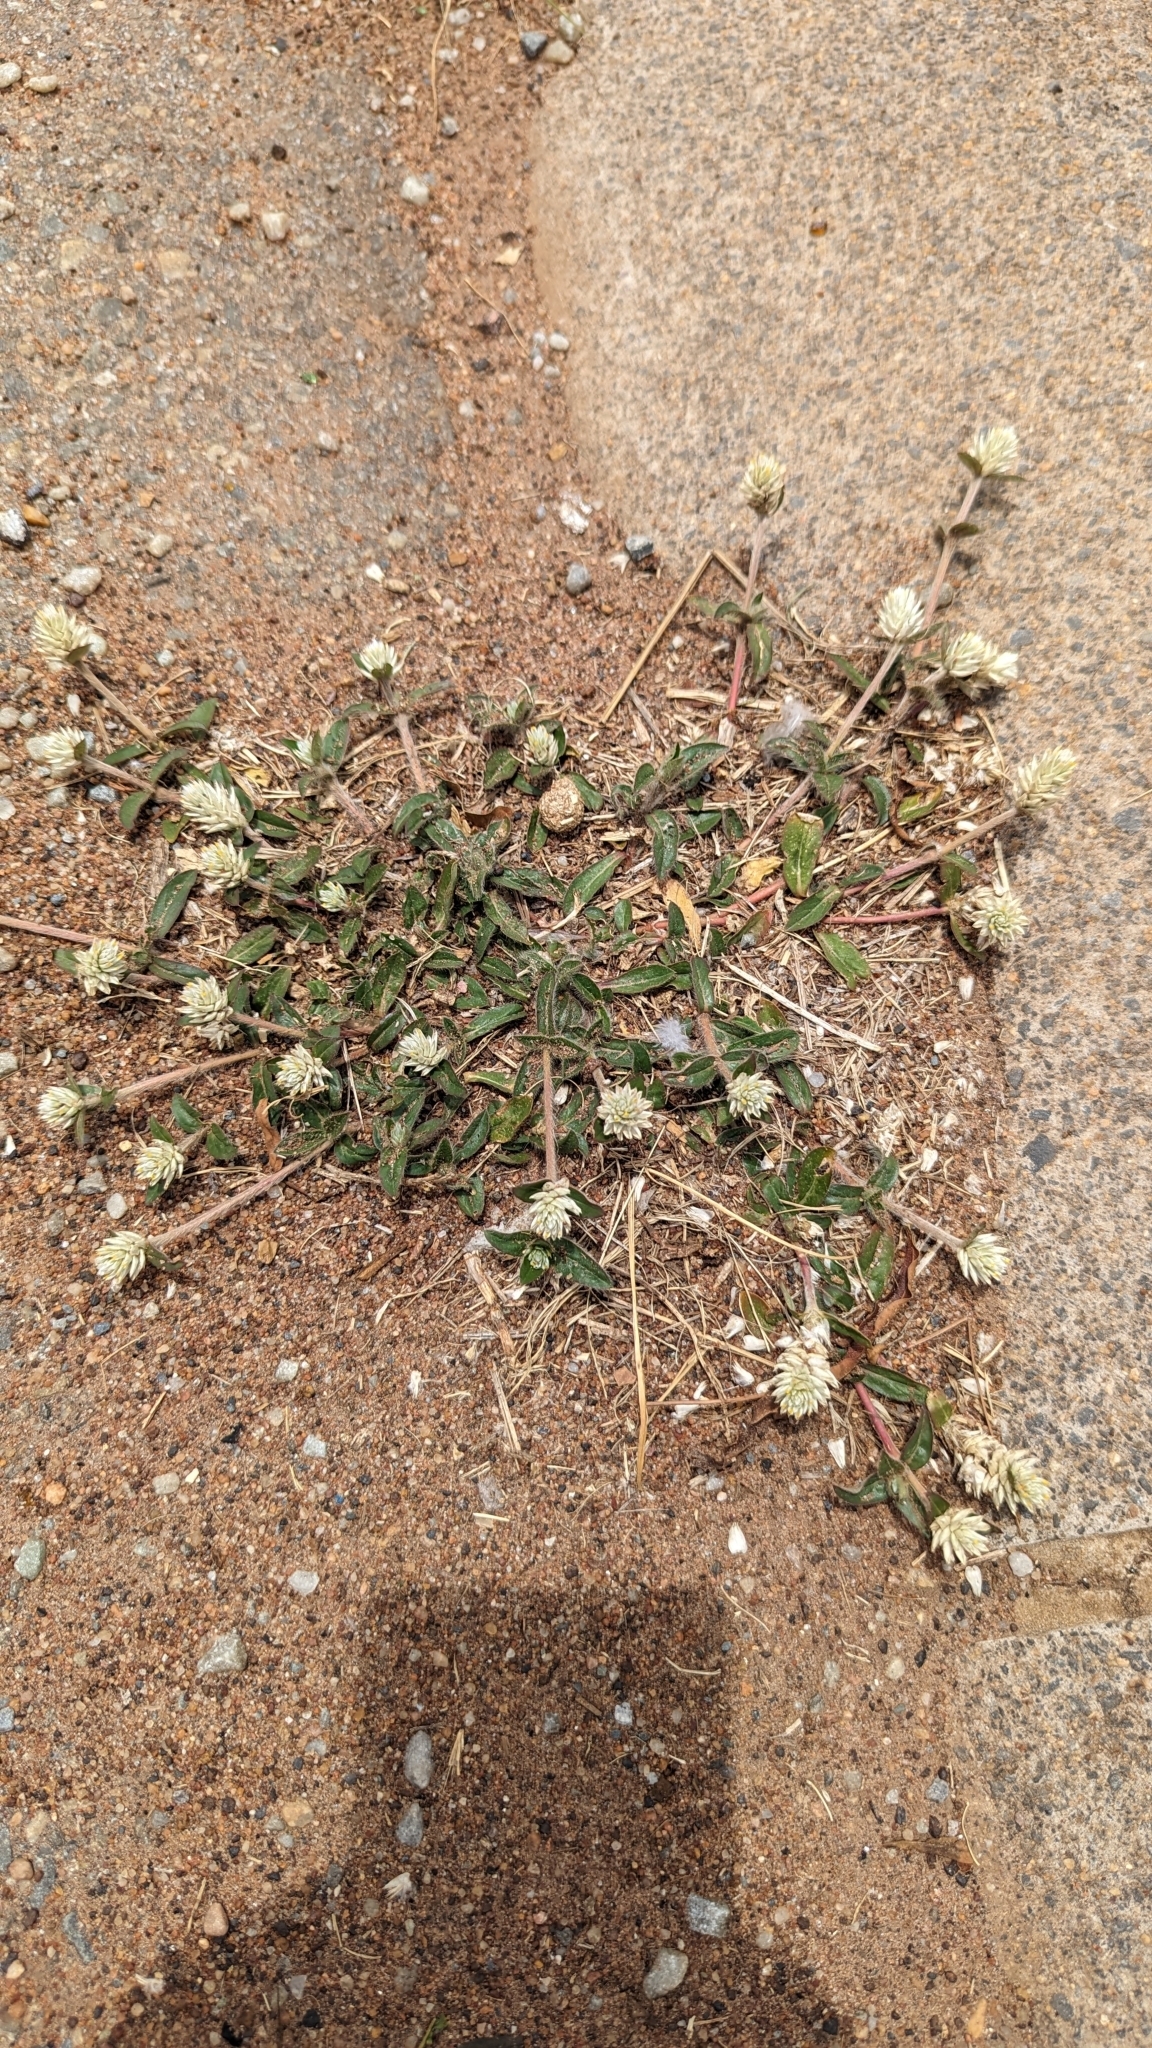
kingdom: Plantae
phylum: Tracheophyta
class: Magnoliopsida
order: Caryophyllales
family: Amaranthaceae
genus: Gomphrena
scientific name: Gomphrena celosioides
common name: Gomphrena-weed
